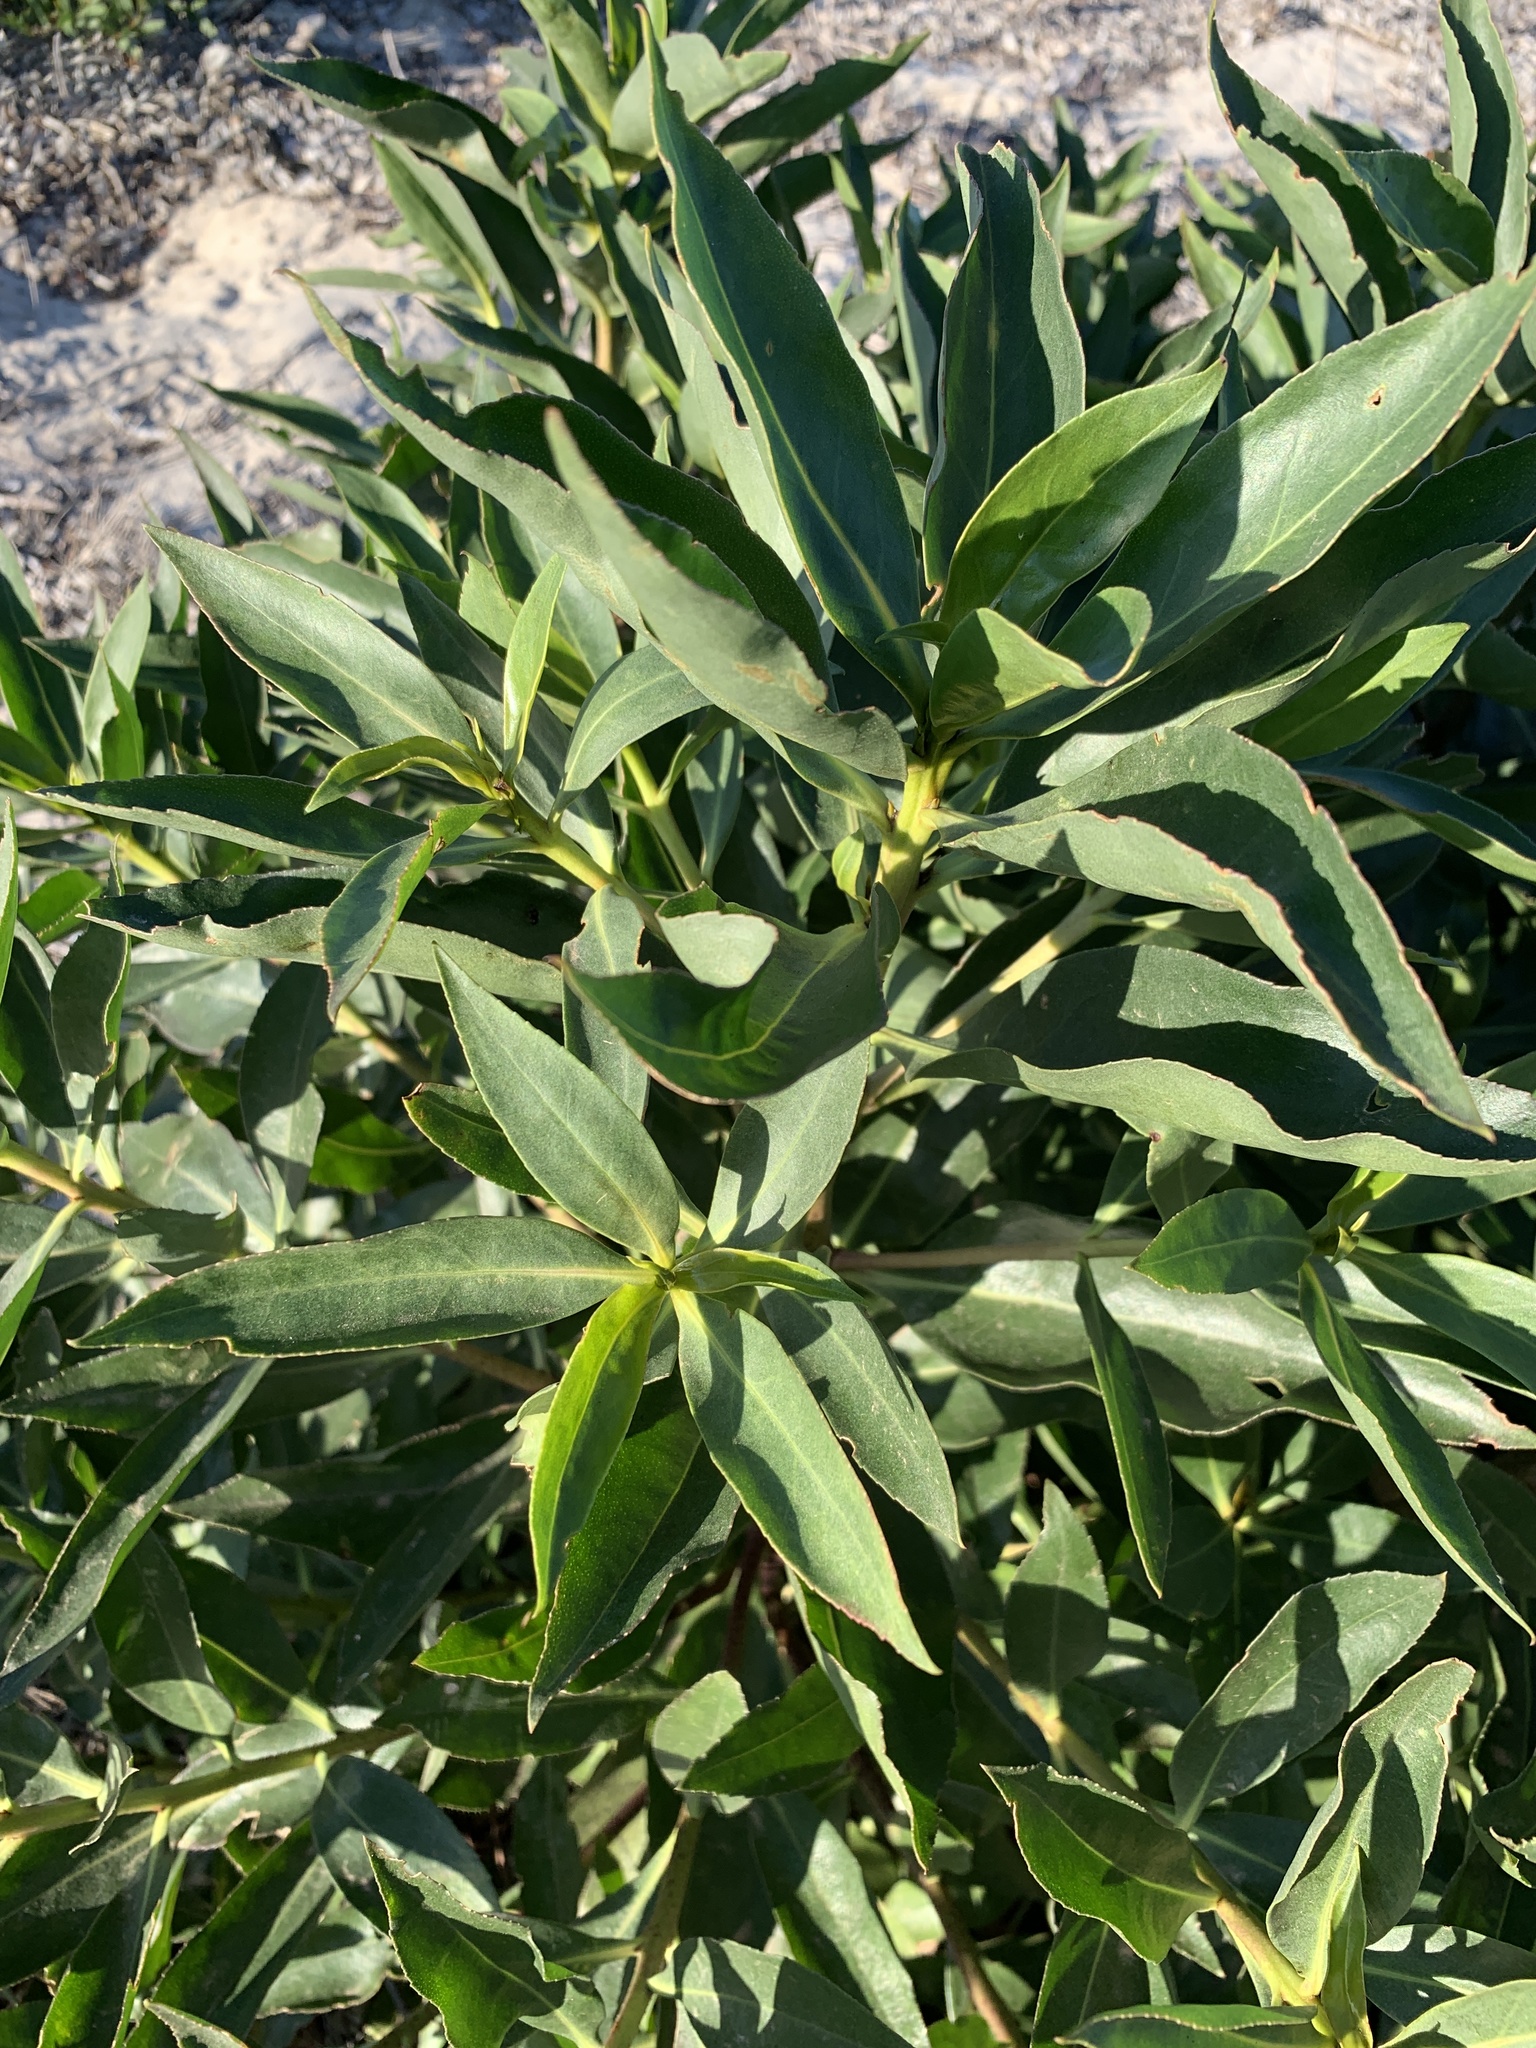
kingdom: Plantae
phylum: Tracheophyta
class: Magnoliopsida
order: Lamiales
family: Scrophulariaceae
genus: Myoporum
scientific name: Myoporum insulare
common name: Common boobialla
